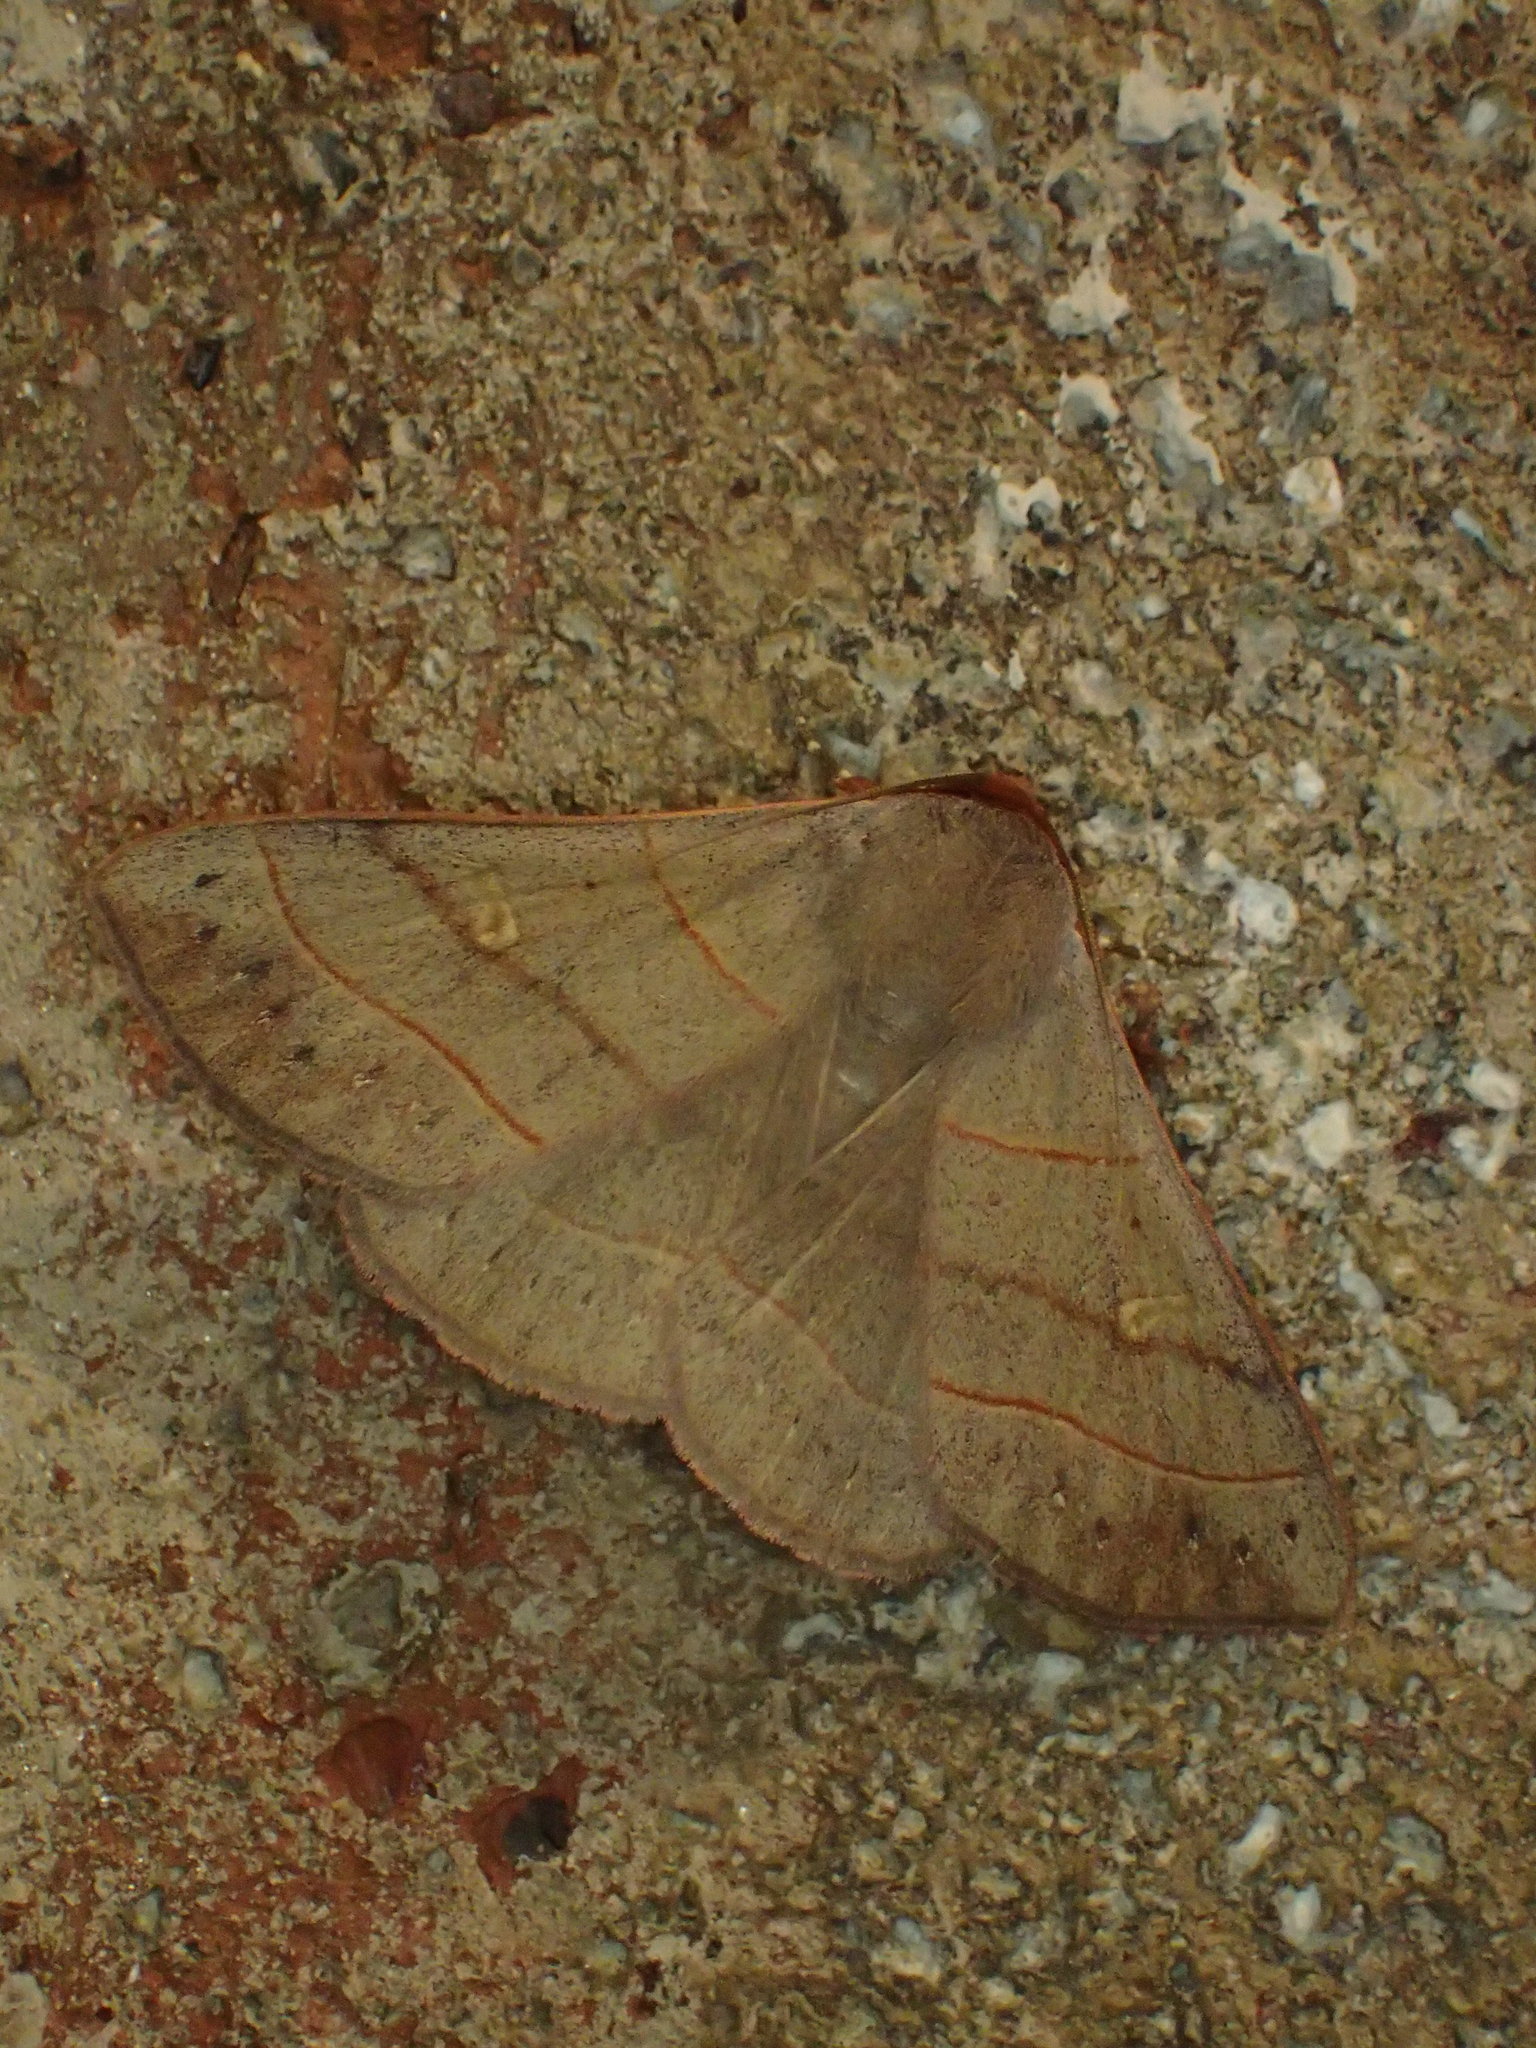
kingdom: Animalia
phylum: Arthropoda
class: Insecta
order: Lepidoptera
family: Erebidae
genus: Panopoda
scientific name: Panopoda rufimargo
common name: Red-lined panopoda moth
